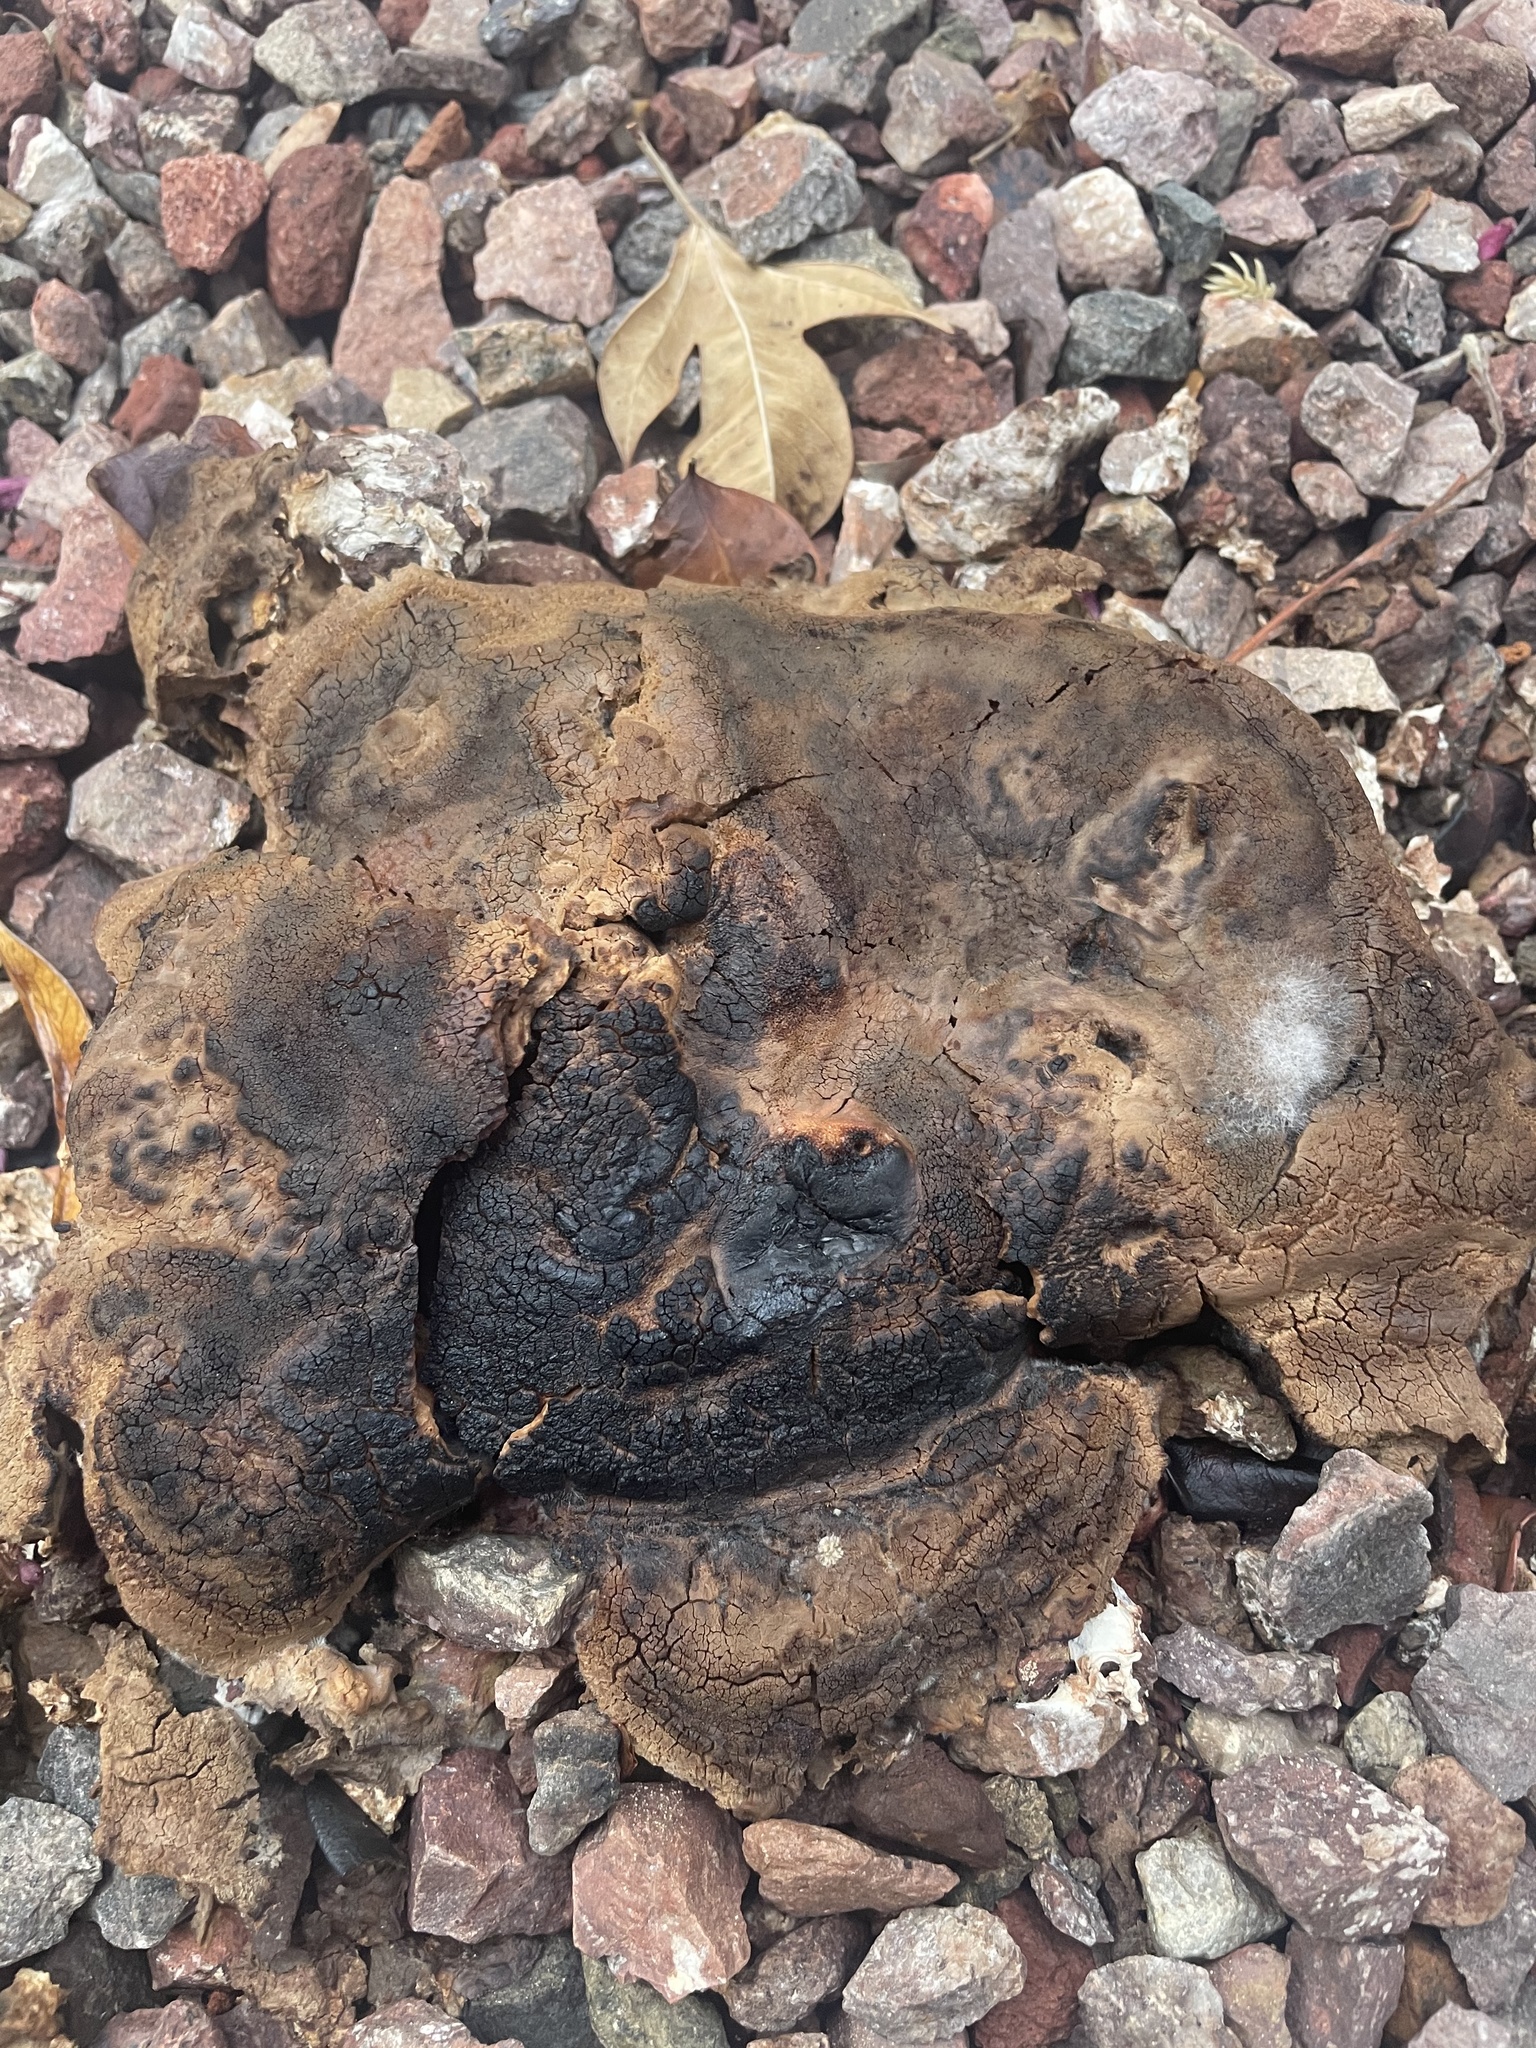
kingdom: Fungi
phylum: Basidiomycota
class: Agaricomycetes
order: Boletales
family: Sclerodermataceae
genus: Pisolithus
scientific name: Pisolithus arhizus
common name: Dyeball
